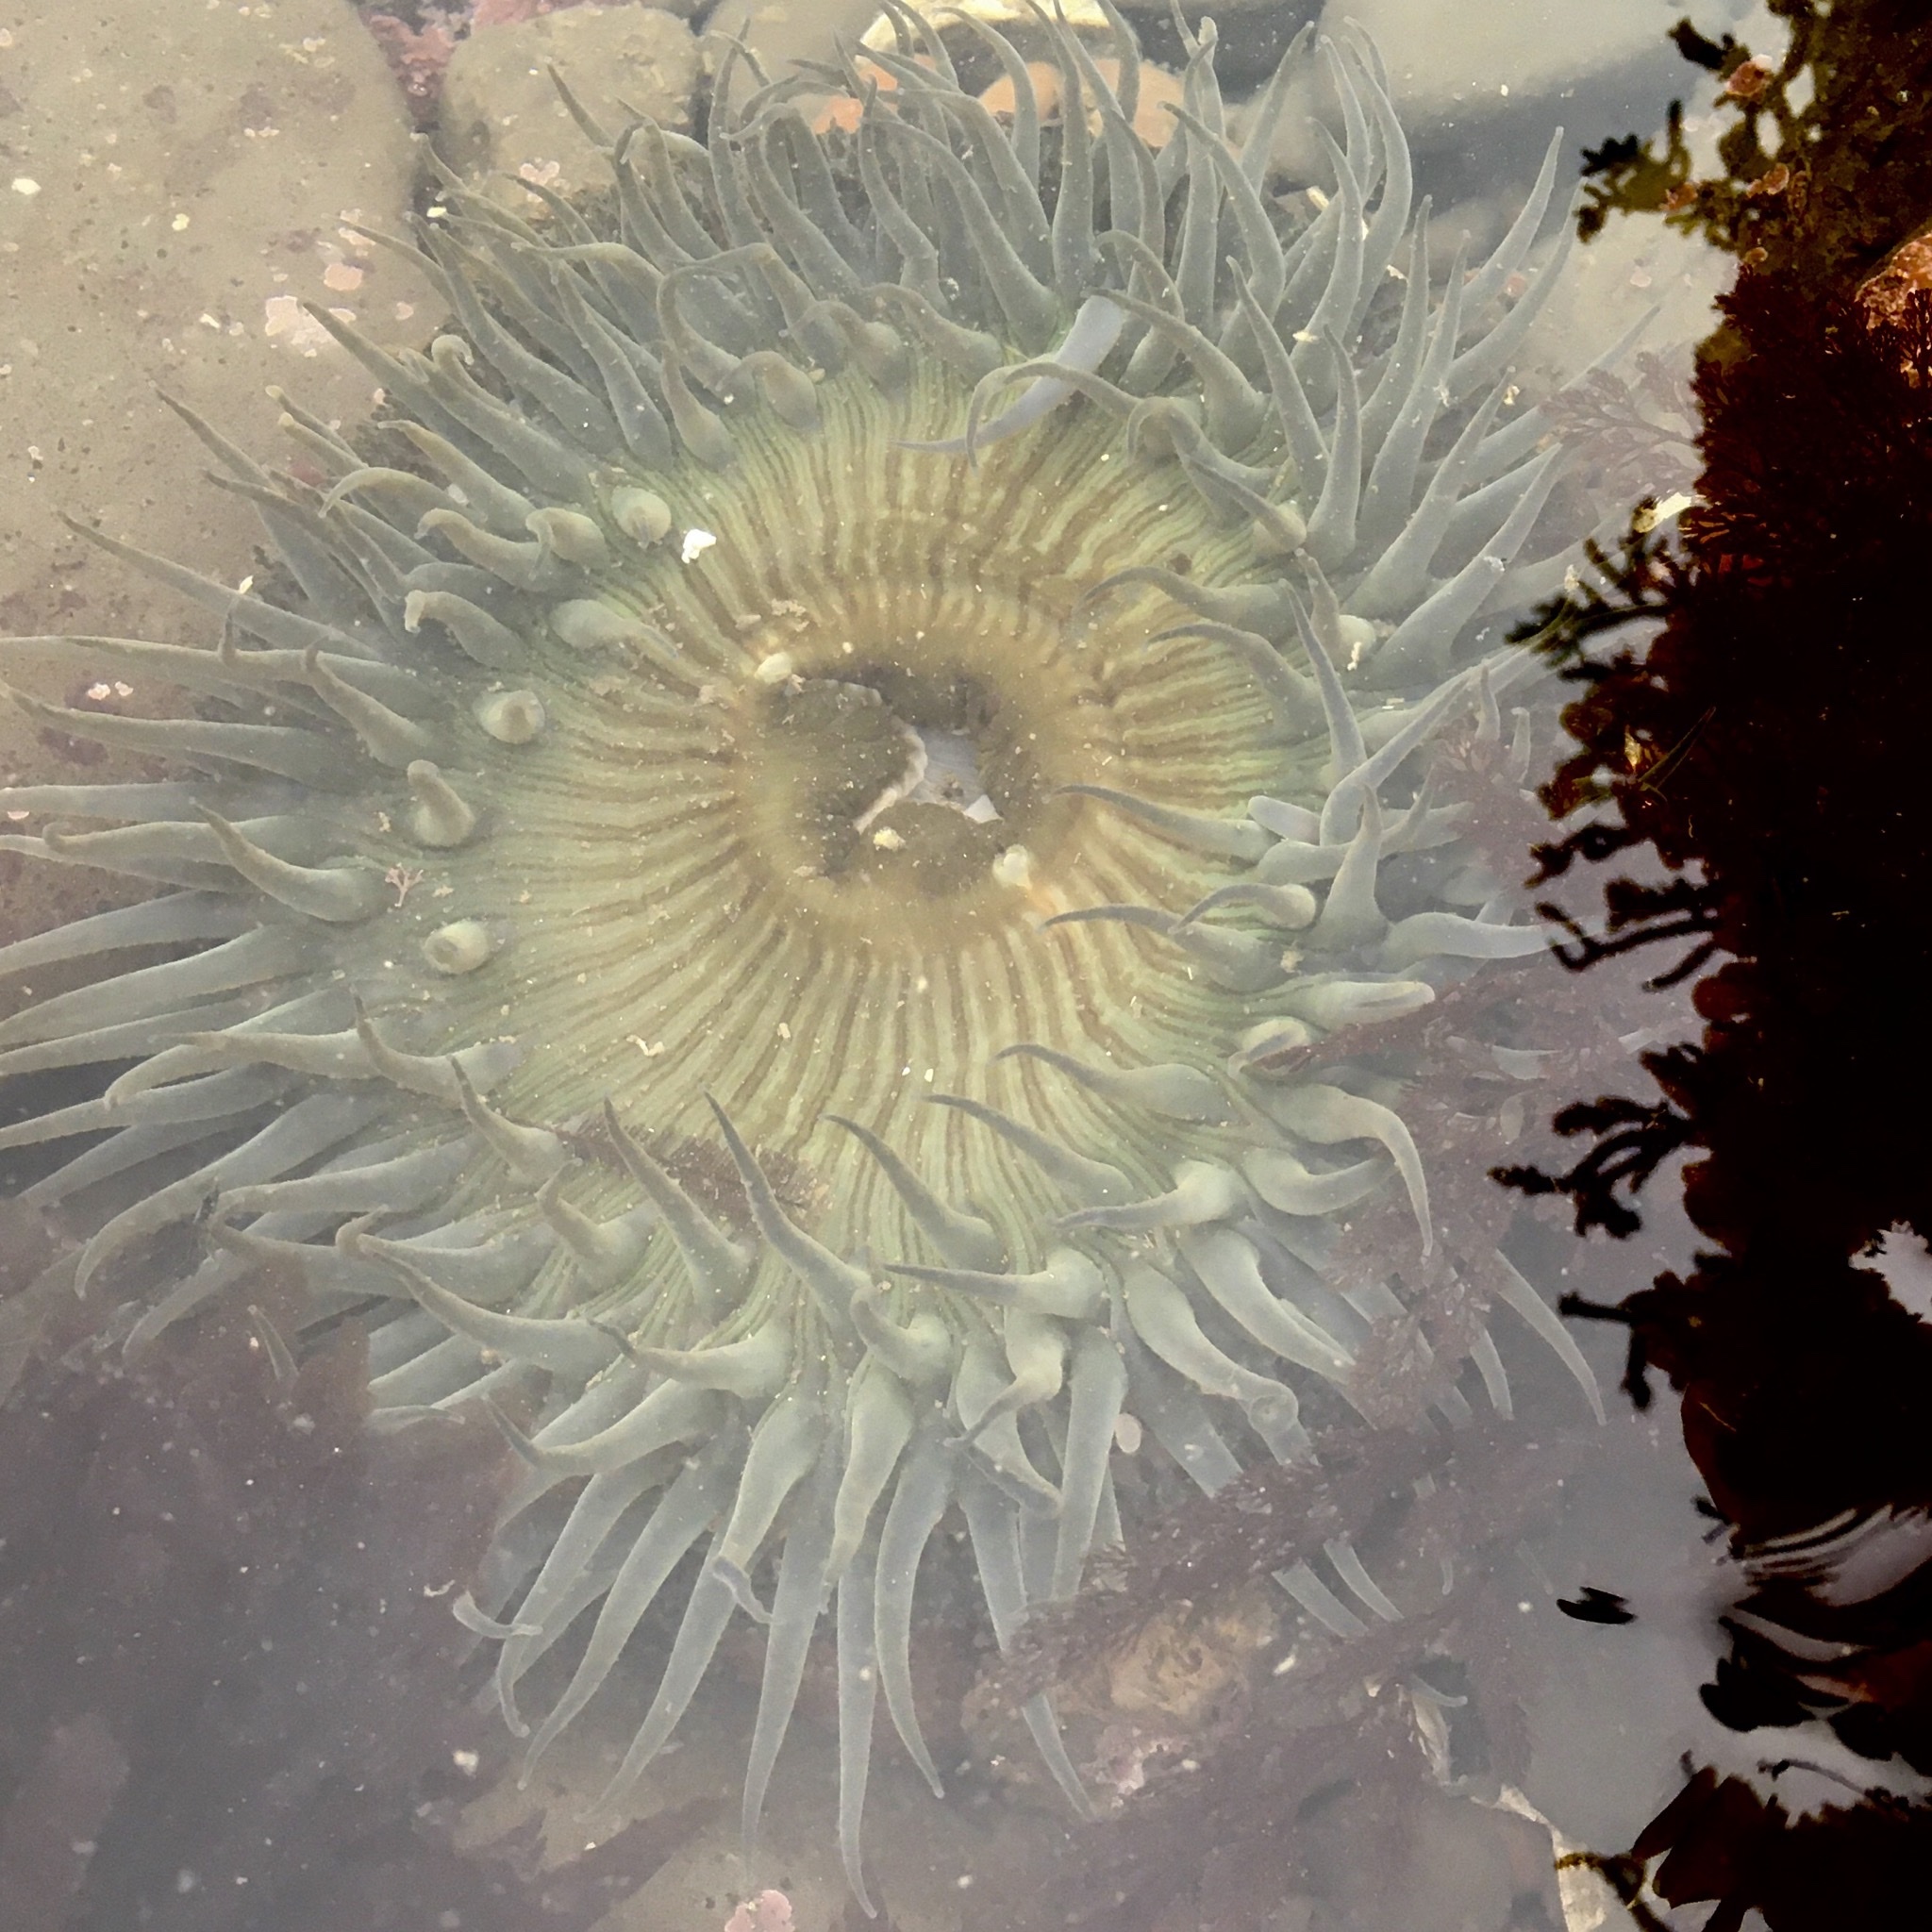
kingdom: Animalia
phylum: Cnidaria
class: Anthozoa
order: Actiniaria
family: Actiniidae
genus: Anthopleura
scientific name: Anthopleura sola
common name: Sun anemone
